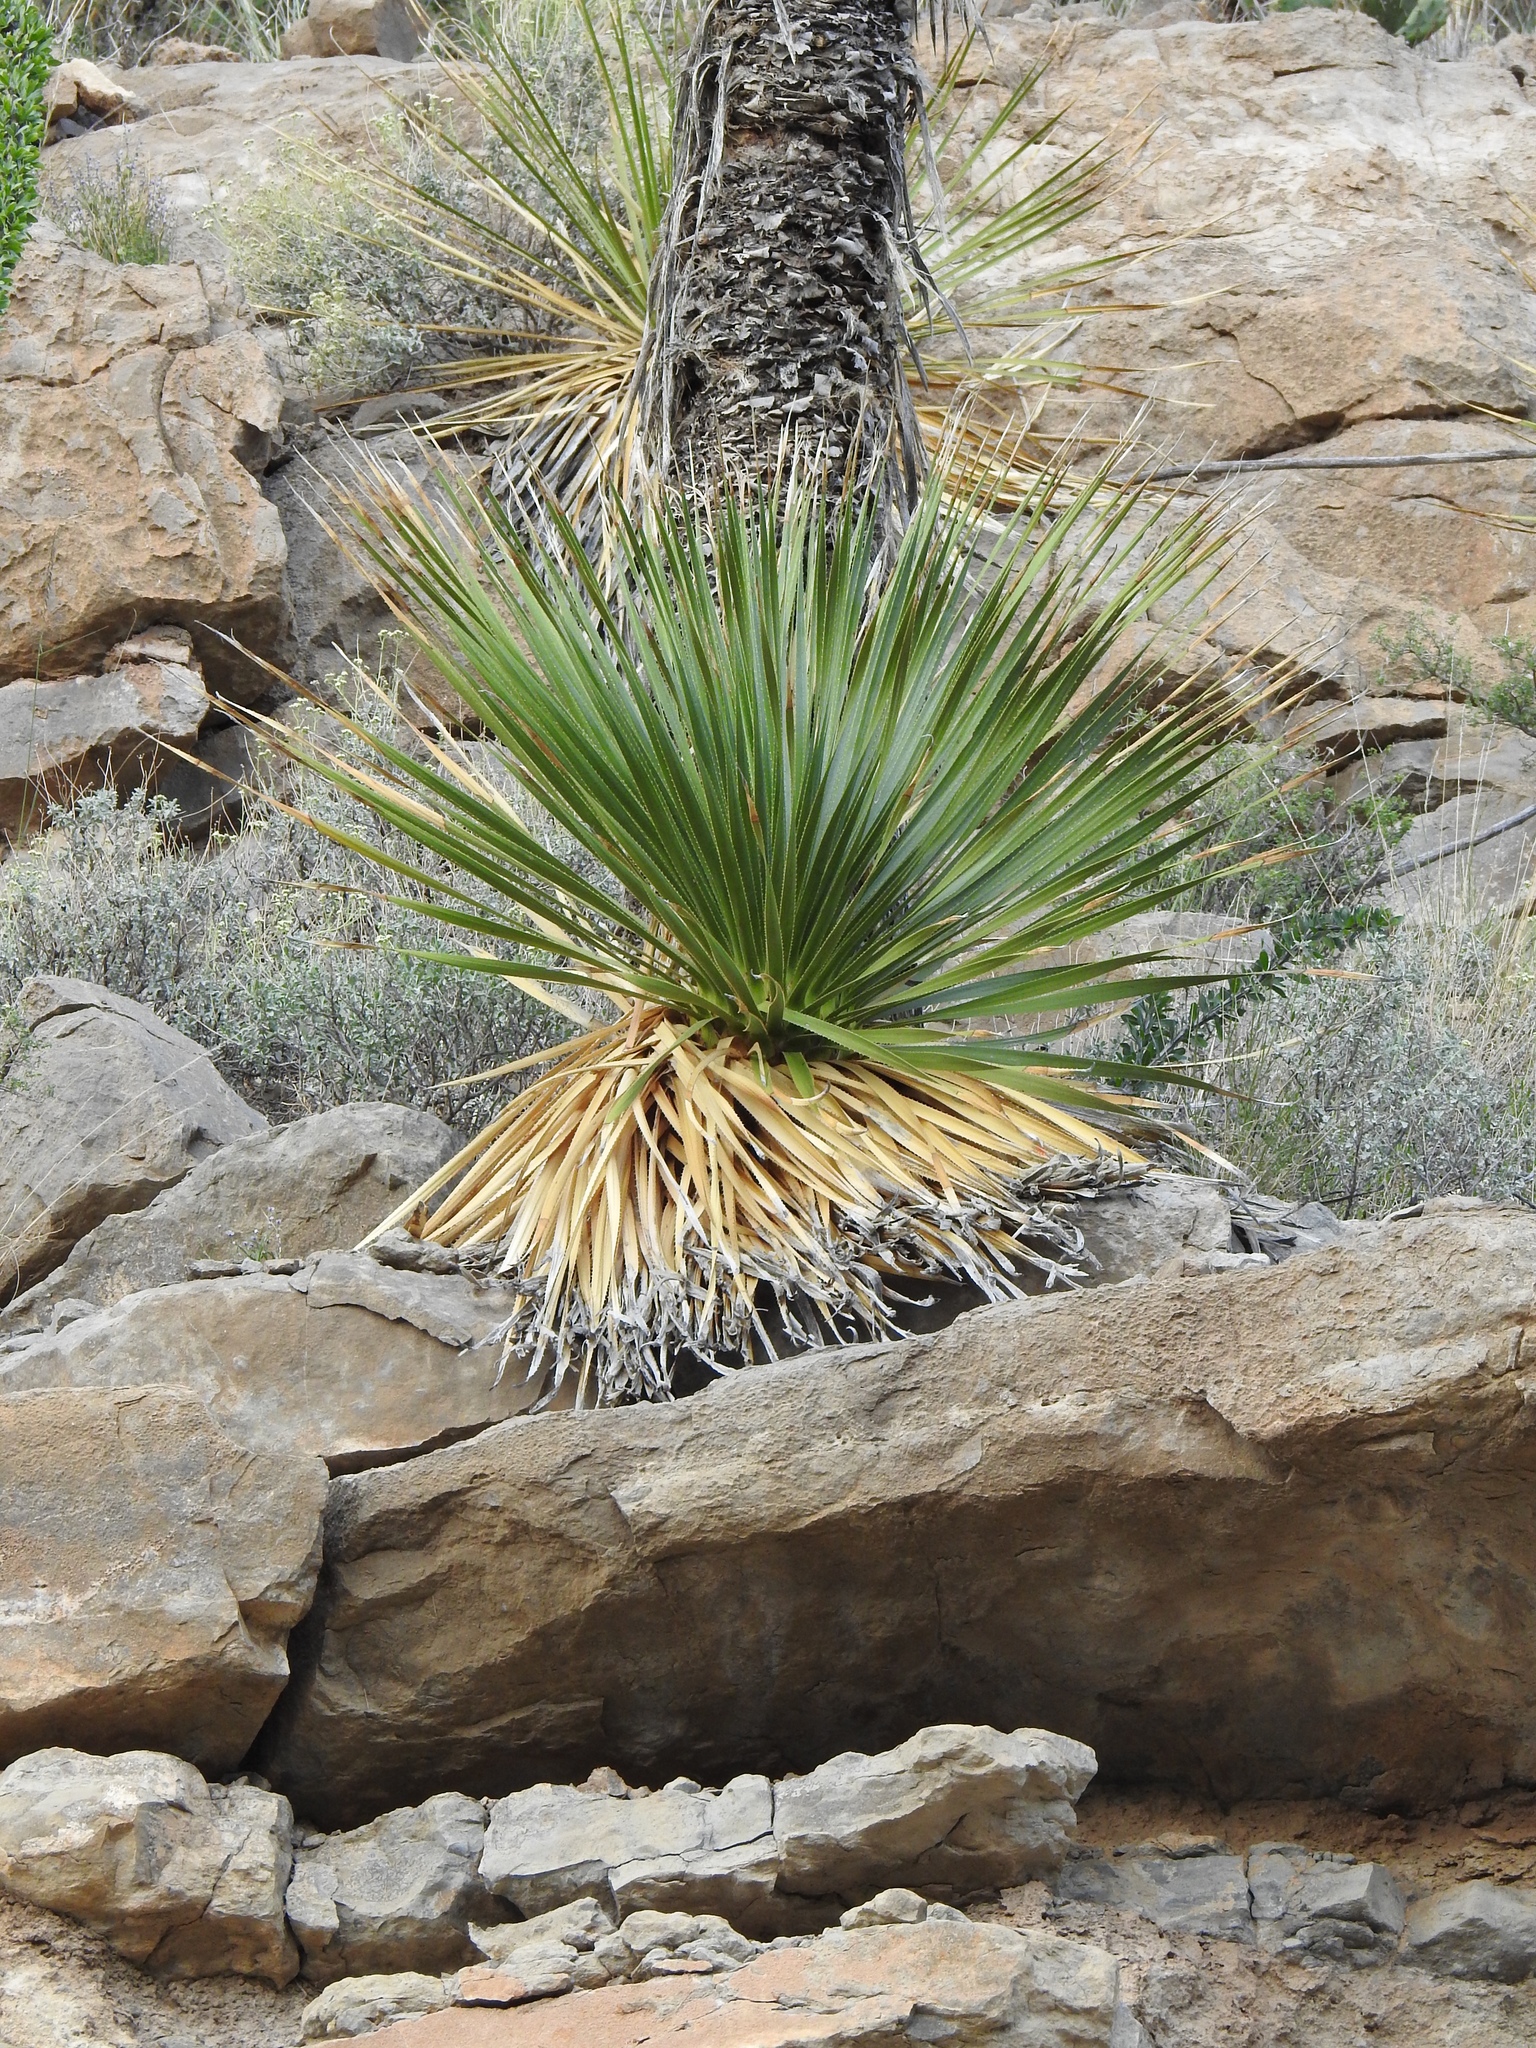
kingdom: Plantae
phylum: Tracheophyta
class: Liliopsida
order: Asparagales
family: Asparagaceae
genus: Dasylirion
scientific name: Dasylirion wheeleri
